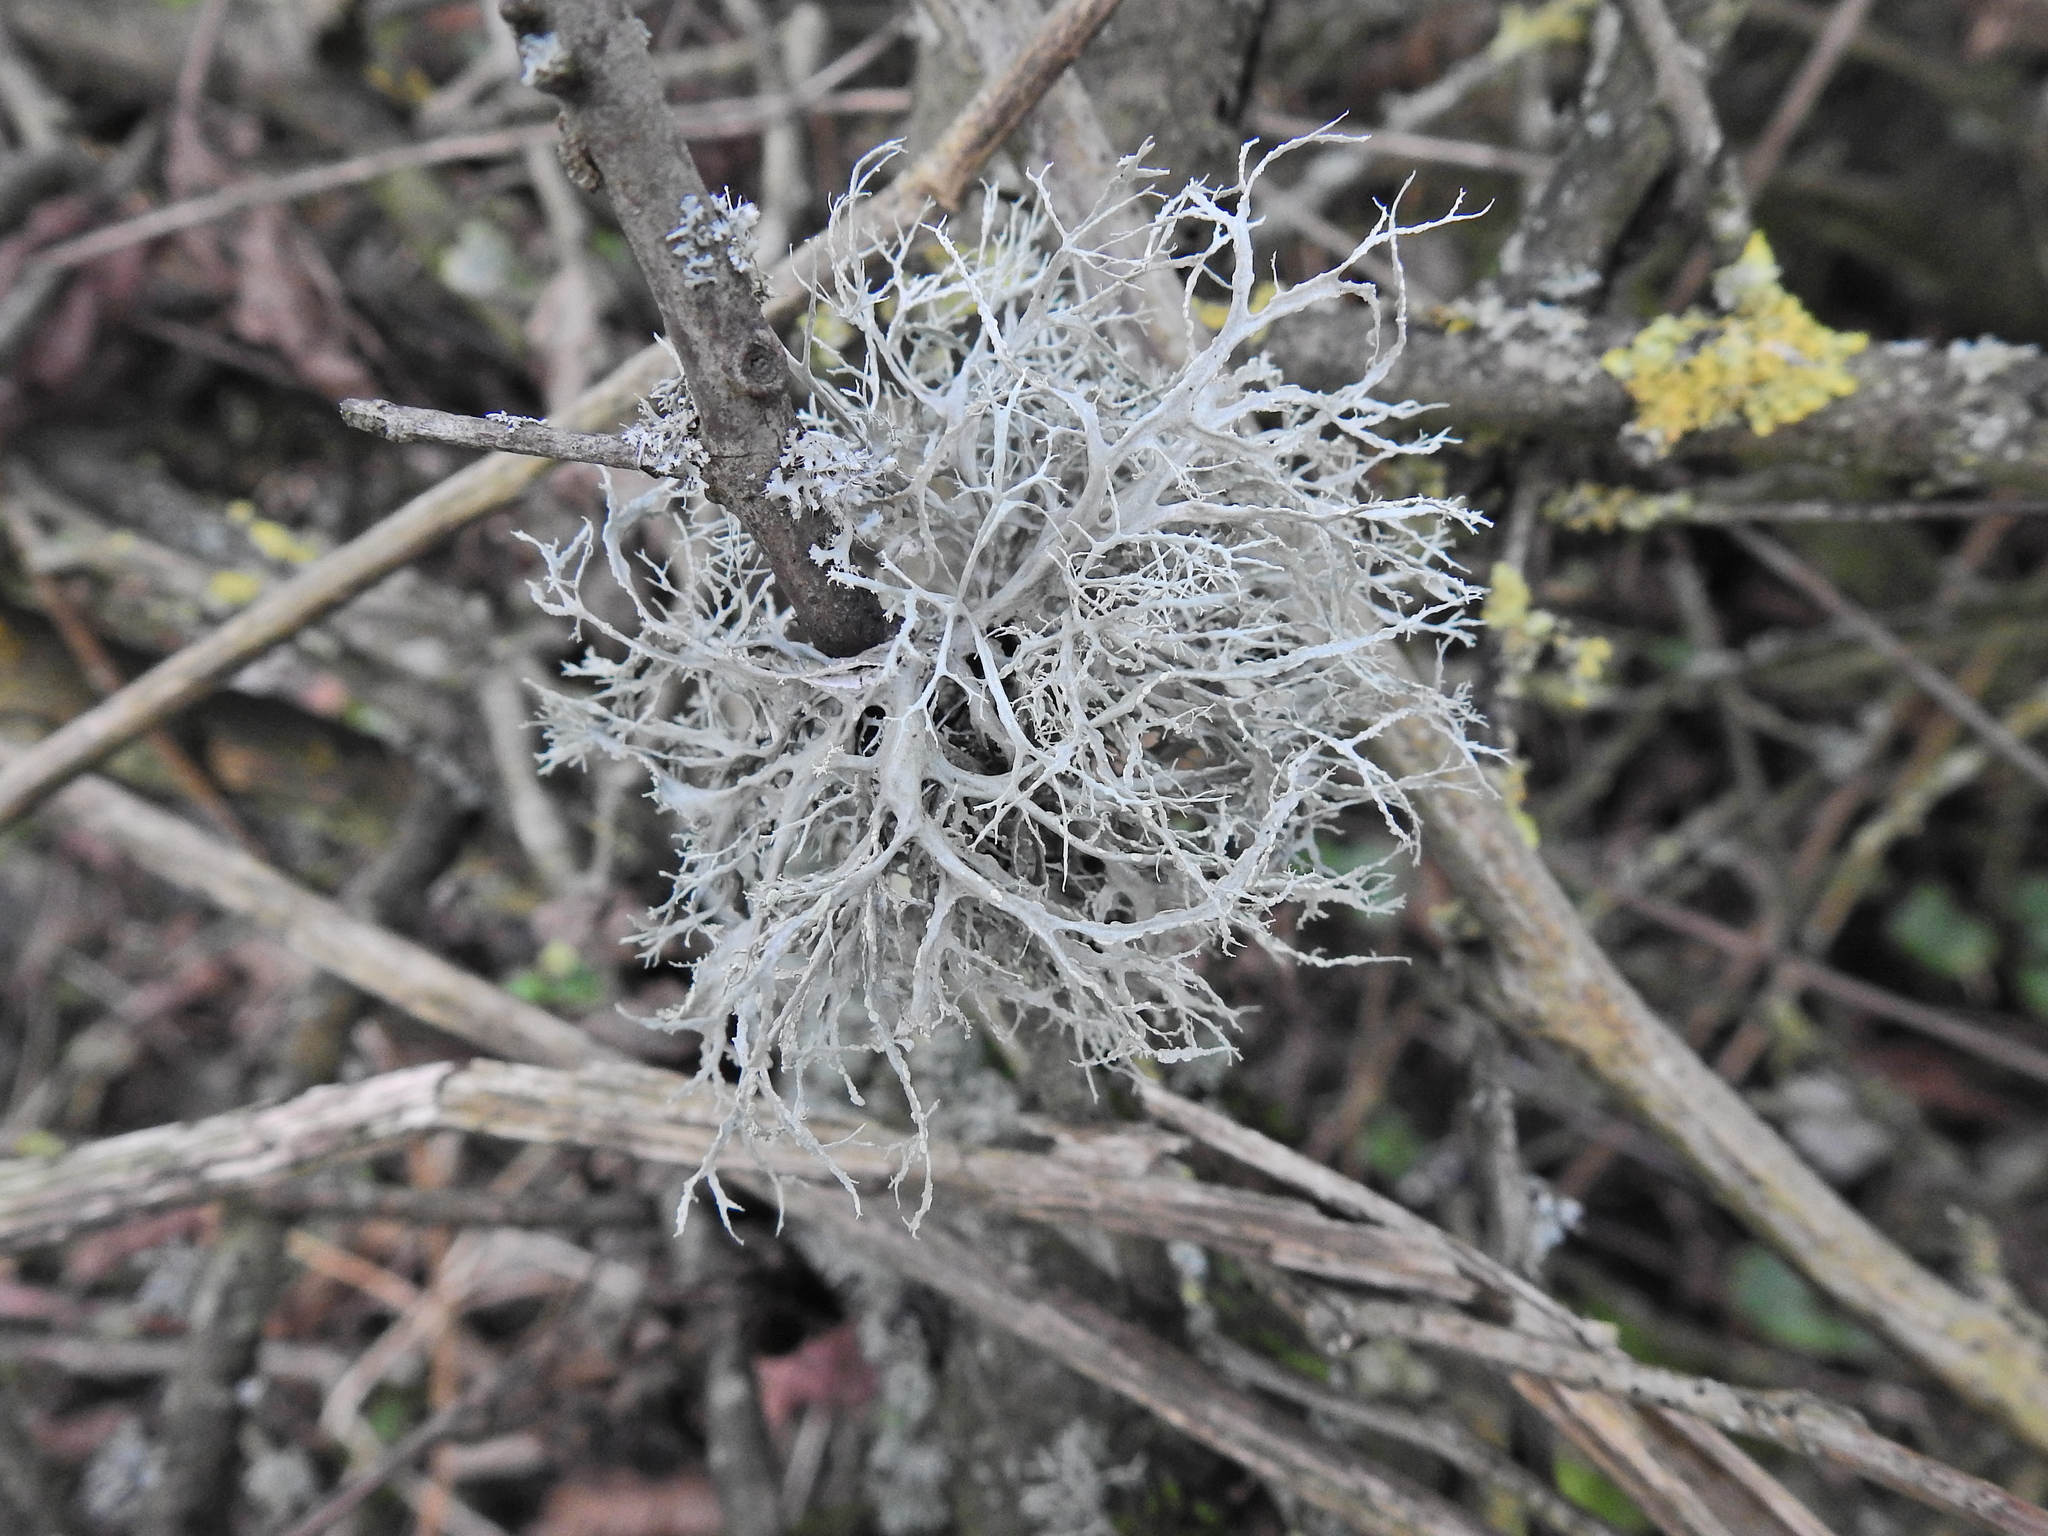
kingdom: Fungi
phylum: Ascomycota
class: Lecanoromycetes
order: Lecanorales
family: Ramalinaceae
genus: Ramalina
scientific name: Ramalina farinacea
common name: Farinose cartilage lichen
